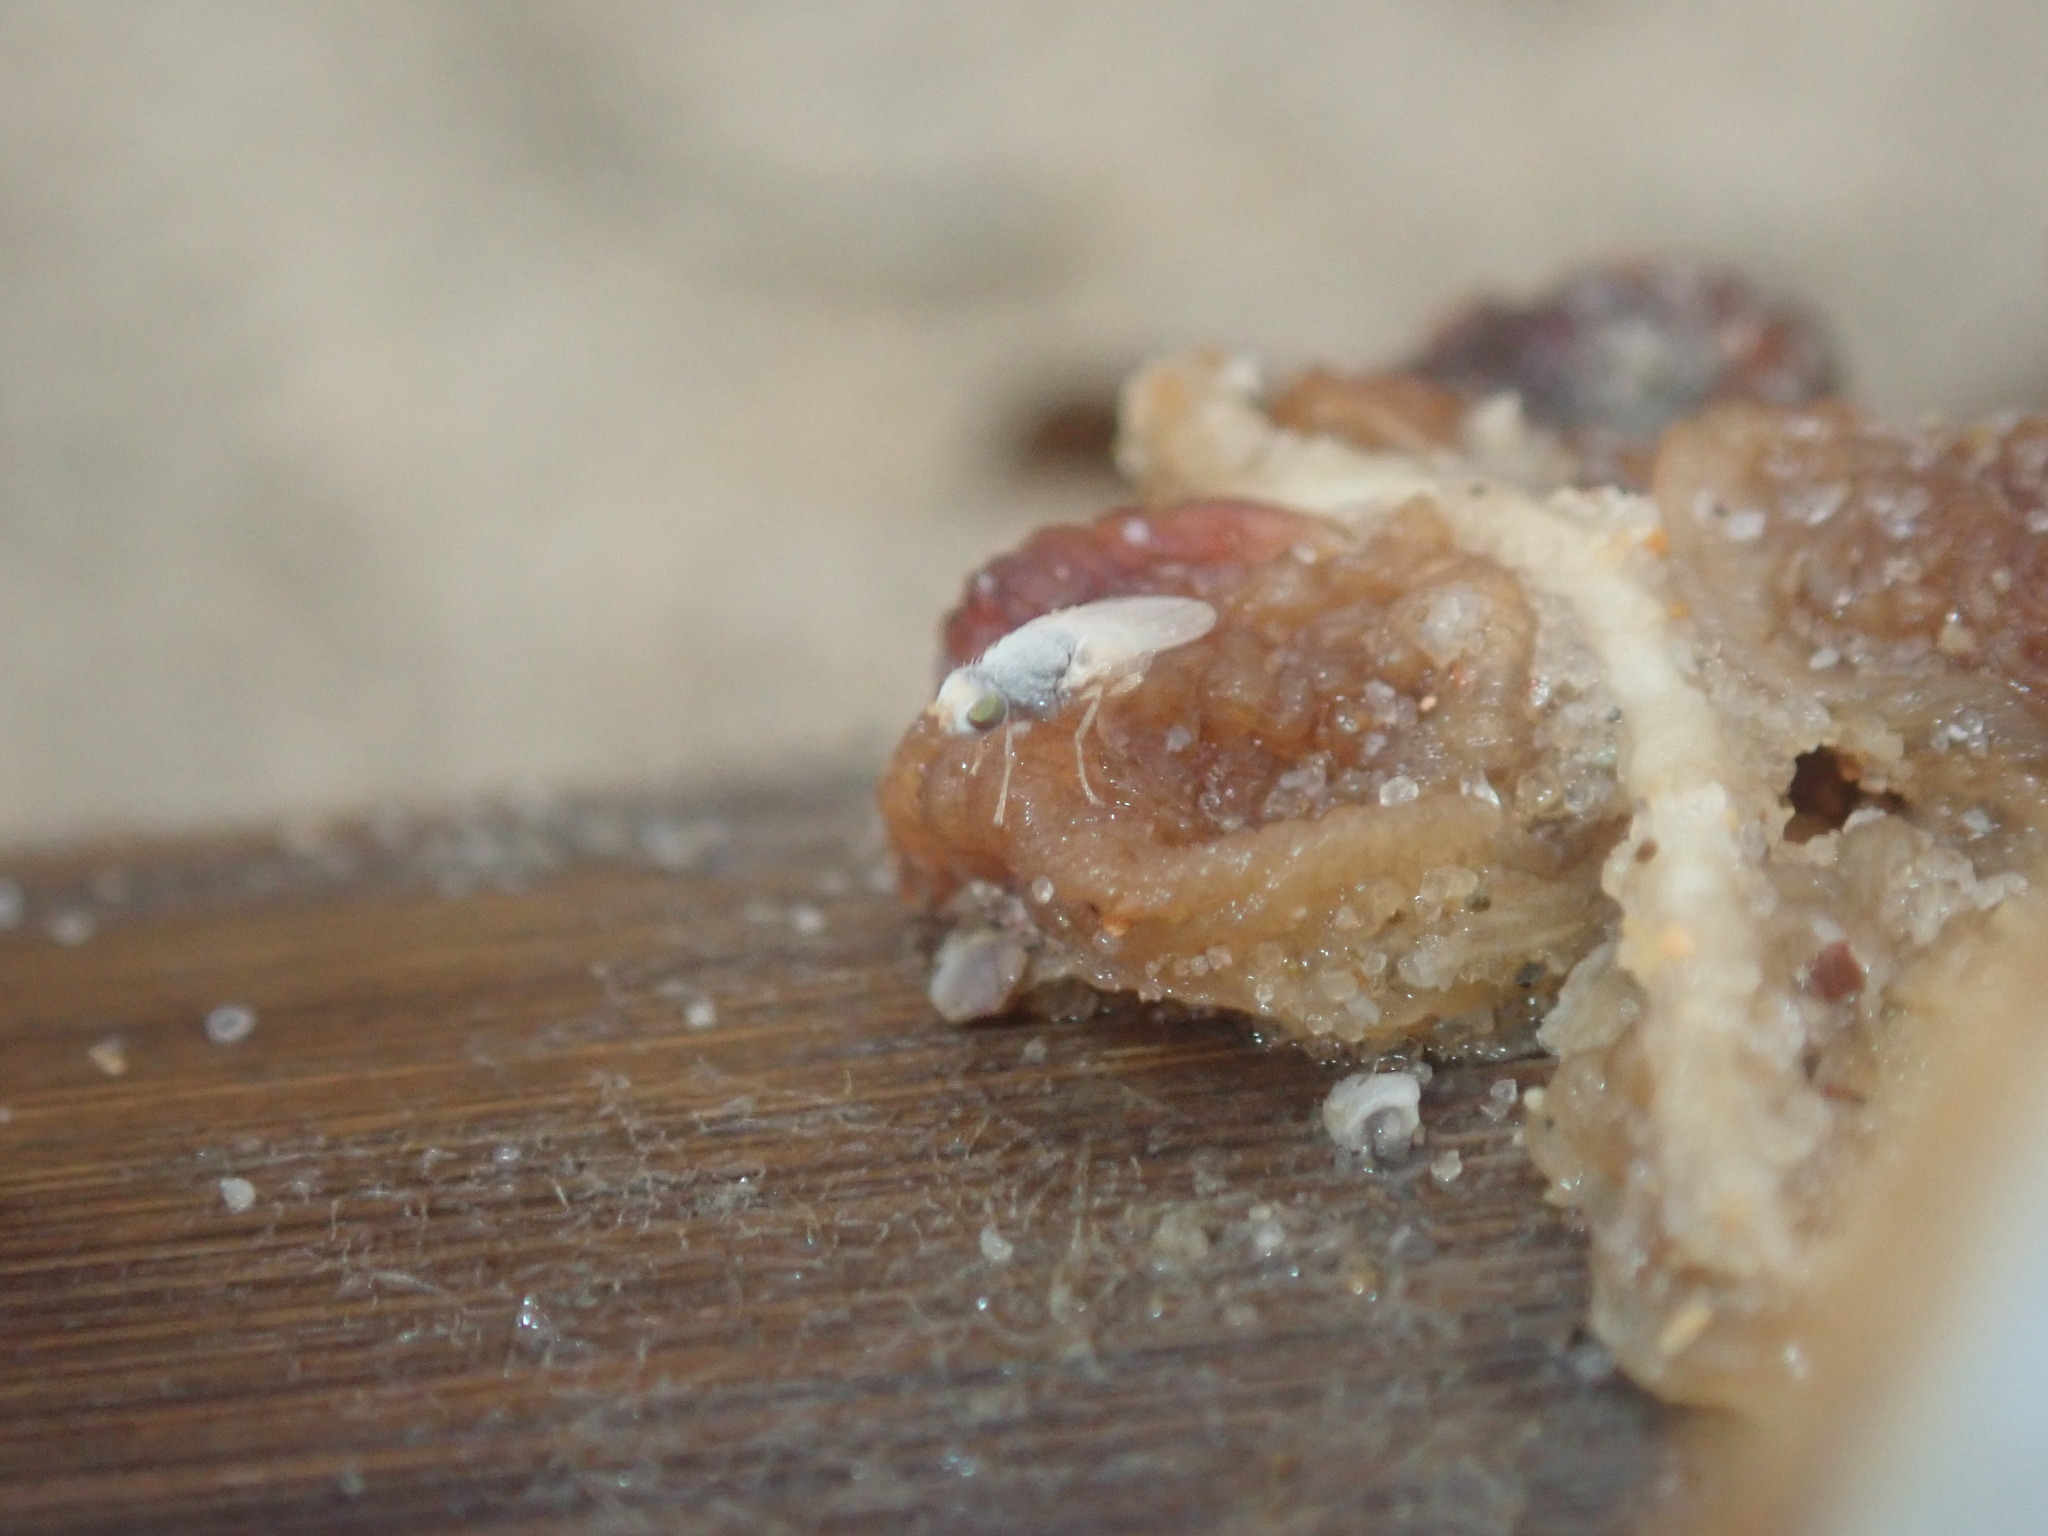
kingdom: Animalia
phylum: Arthropoda
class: Insecta
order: Diptera
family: Canacidae
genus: Tethina
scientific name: Tethina pallidiseta
